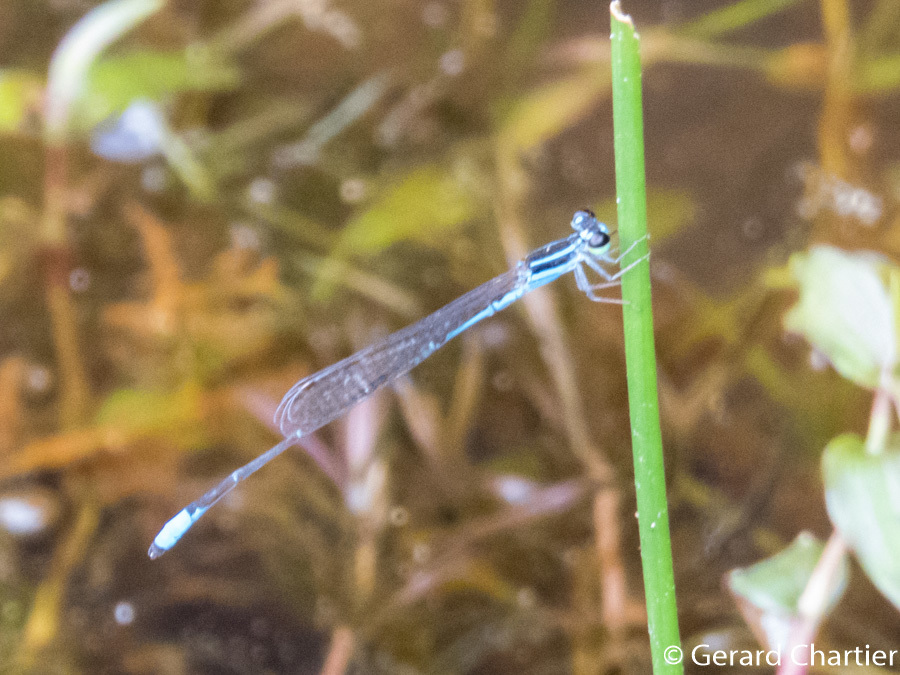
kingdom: Animalia
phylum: Arthropoda
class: Insecta
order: Odonata
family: Coenagrionidae
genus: Argiocnemis
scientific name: Argiocnemis rubescens
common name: Red-tipped shadefly
